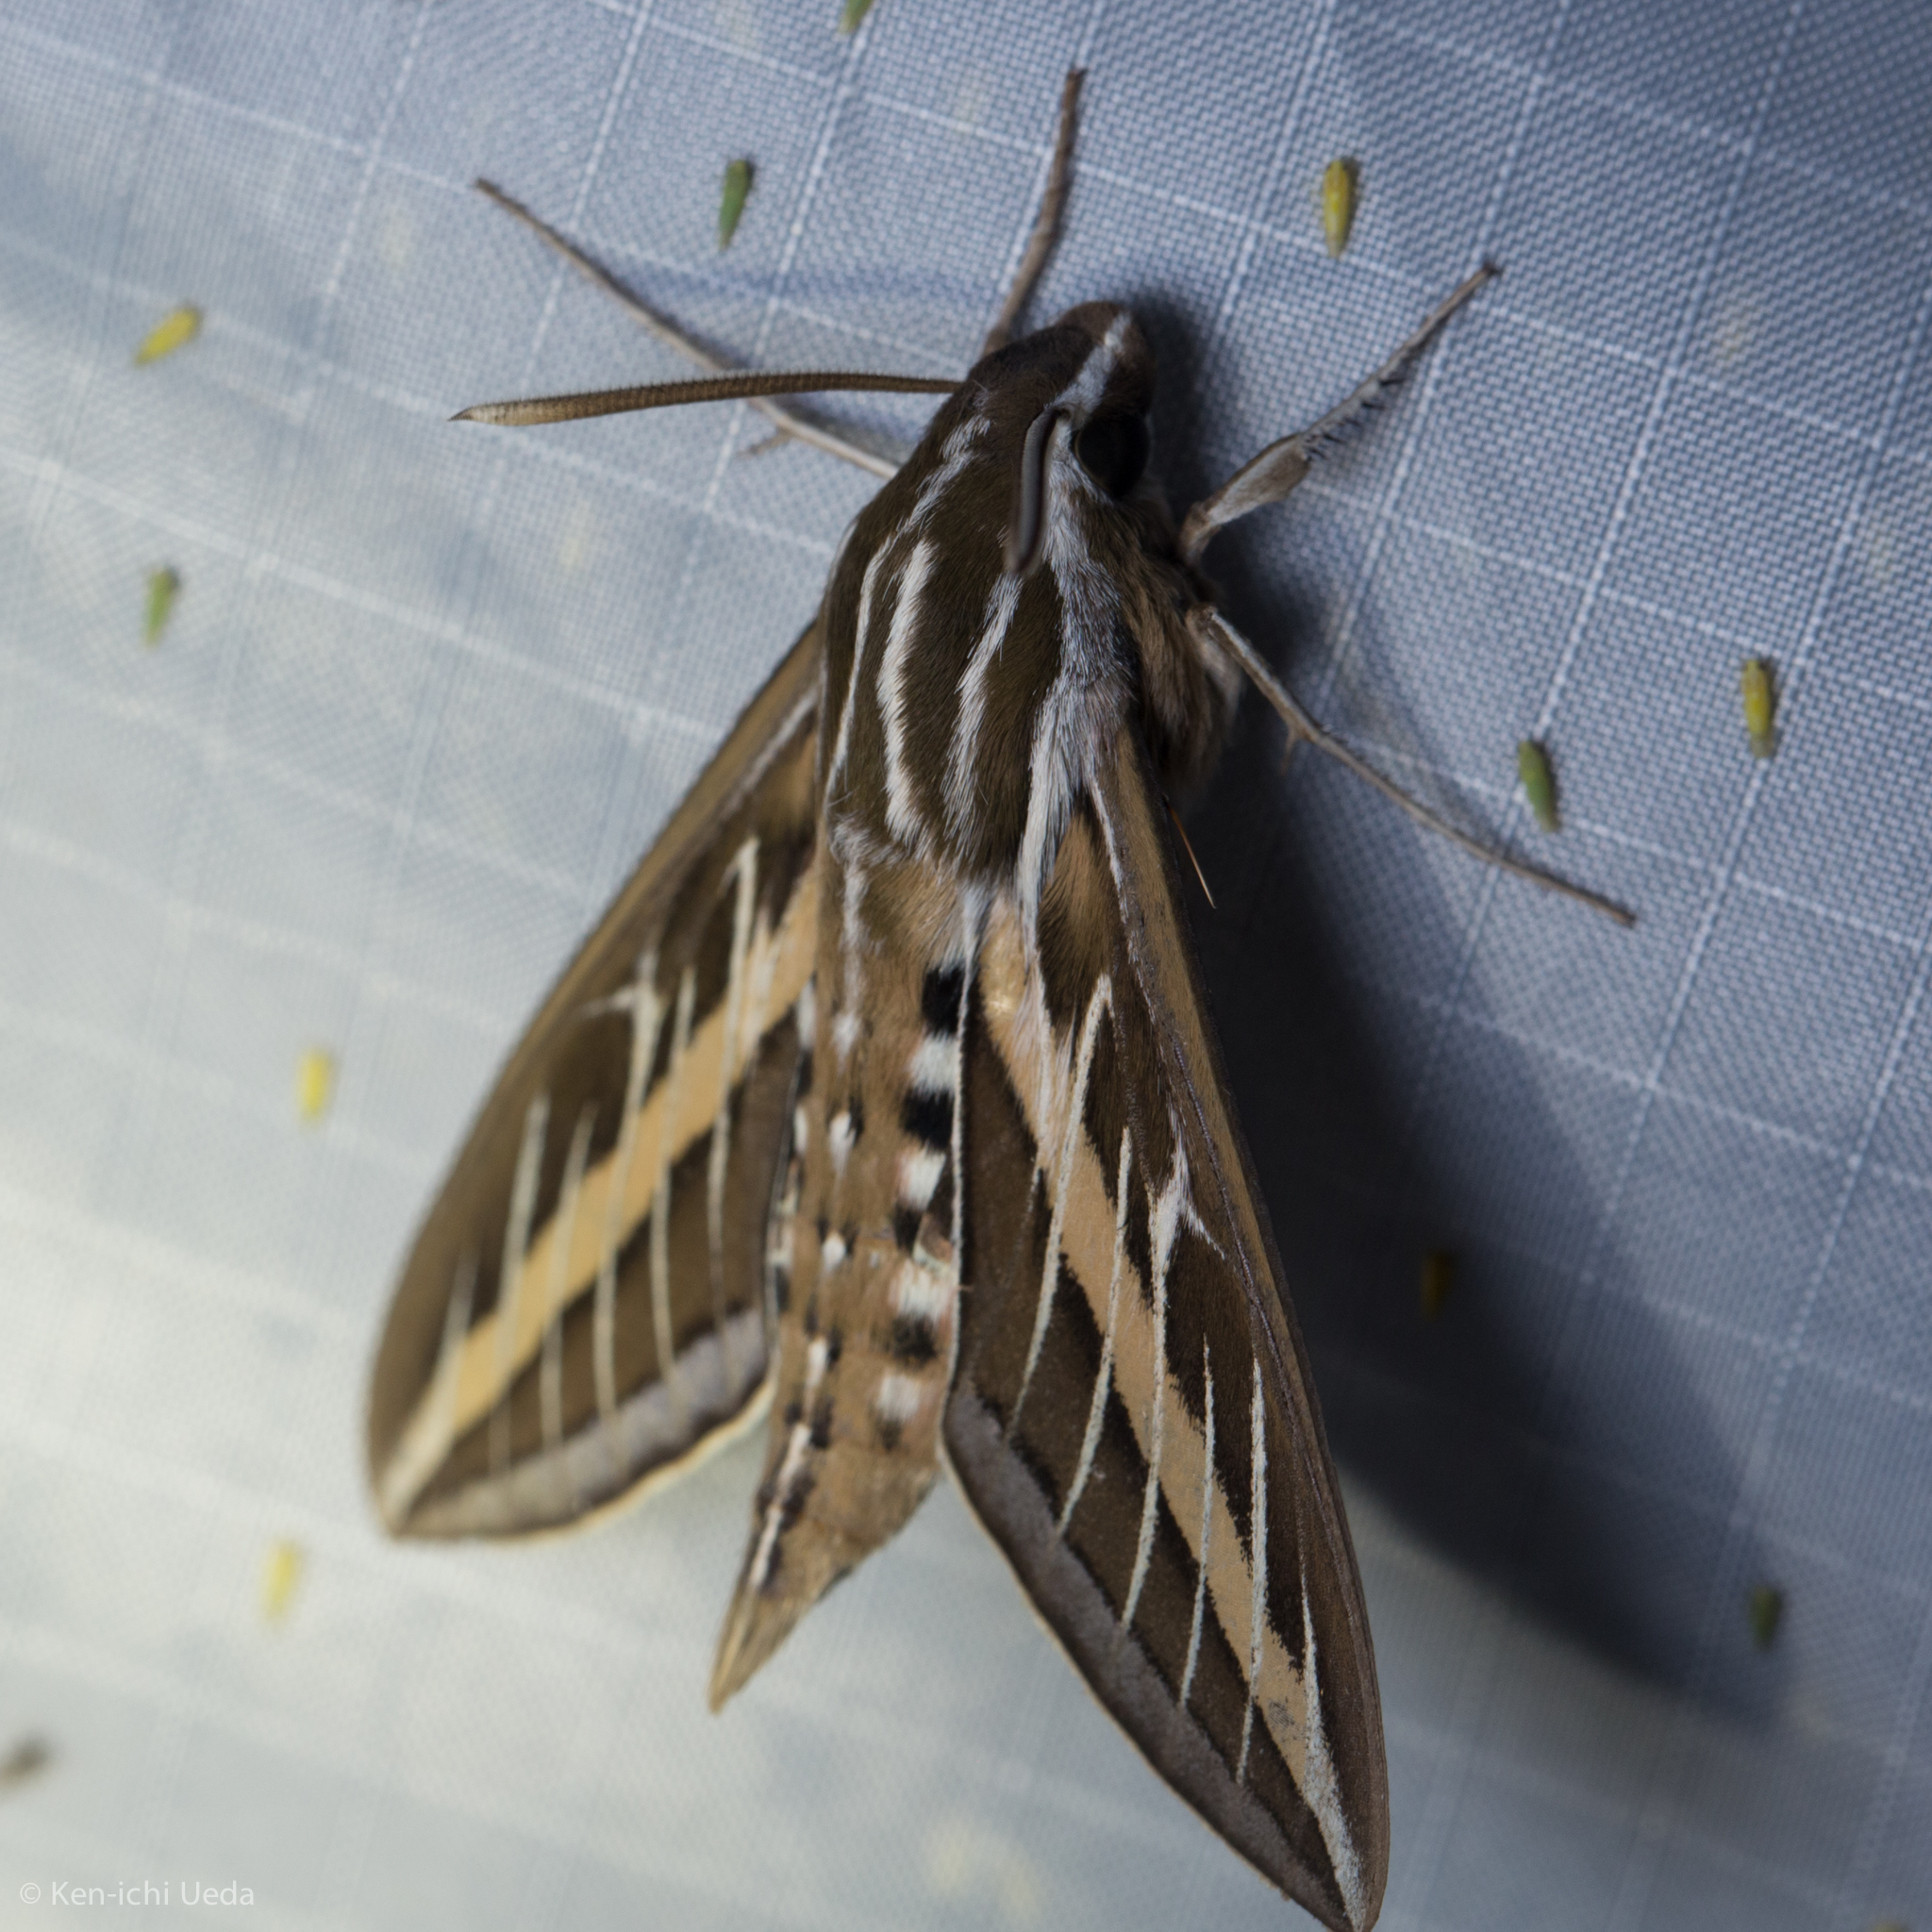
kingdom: Animalia
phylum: Arthropoda
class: Insecta
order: Lepidoptera
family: Sphingidae
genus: Hyles
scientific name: Hyles lineata
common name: White-lined sphinx
